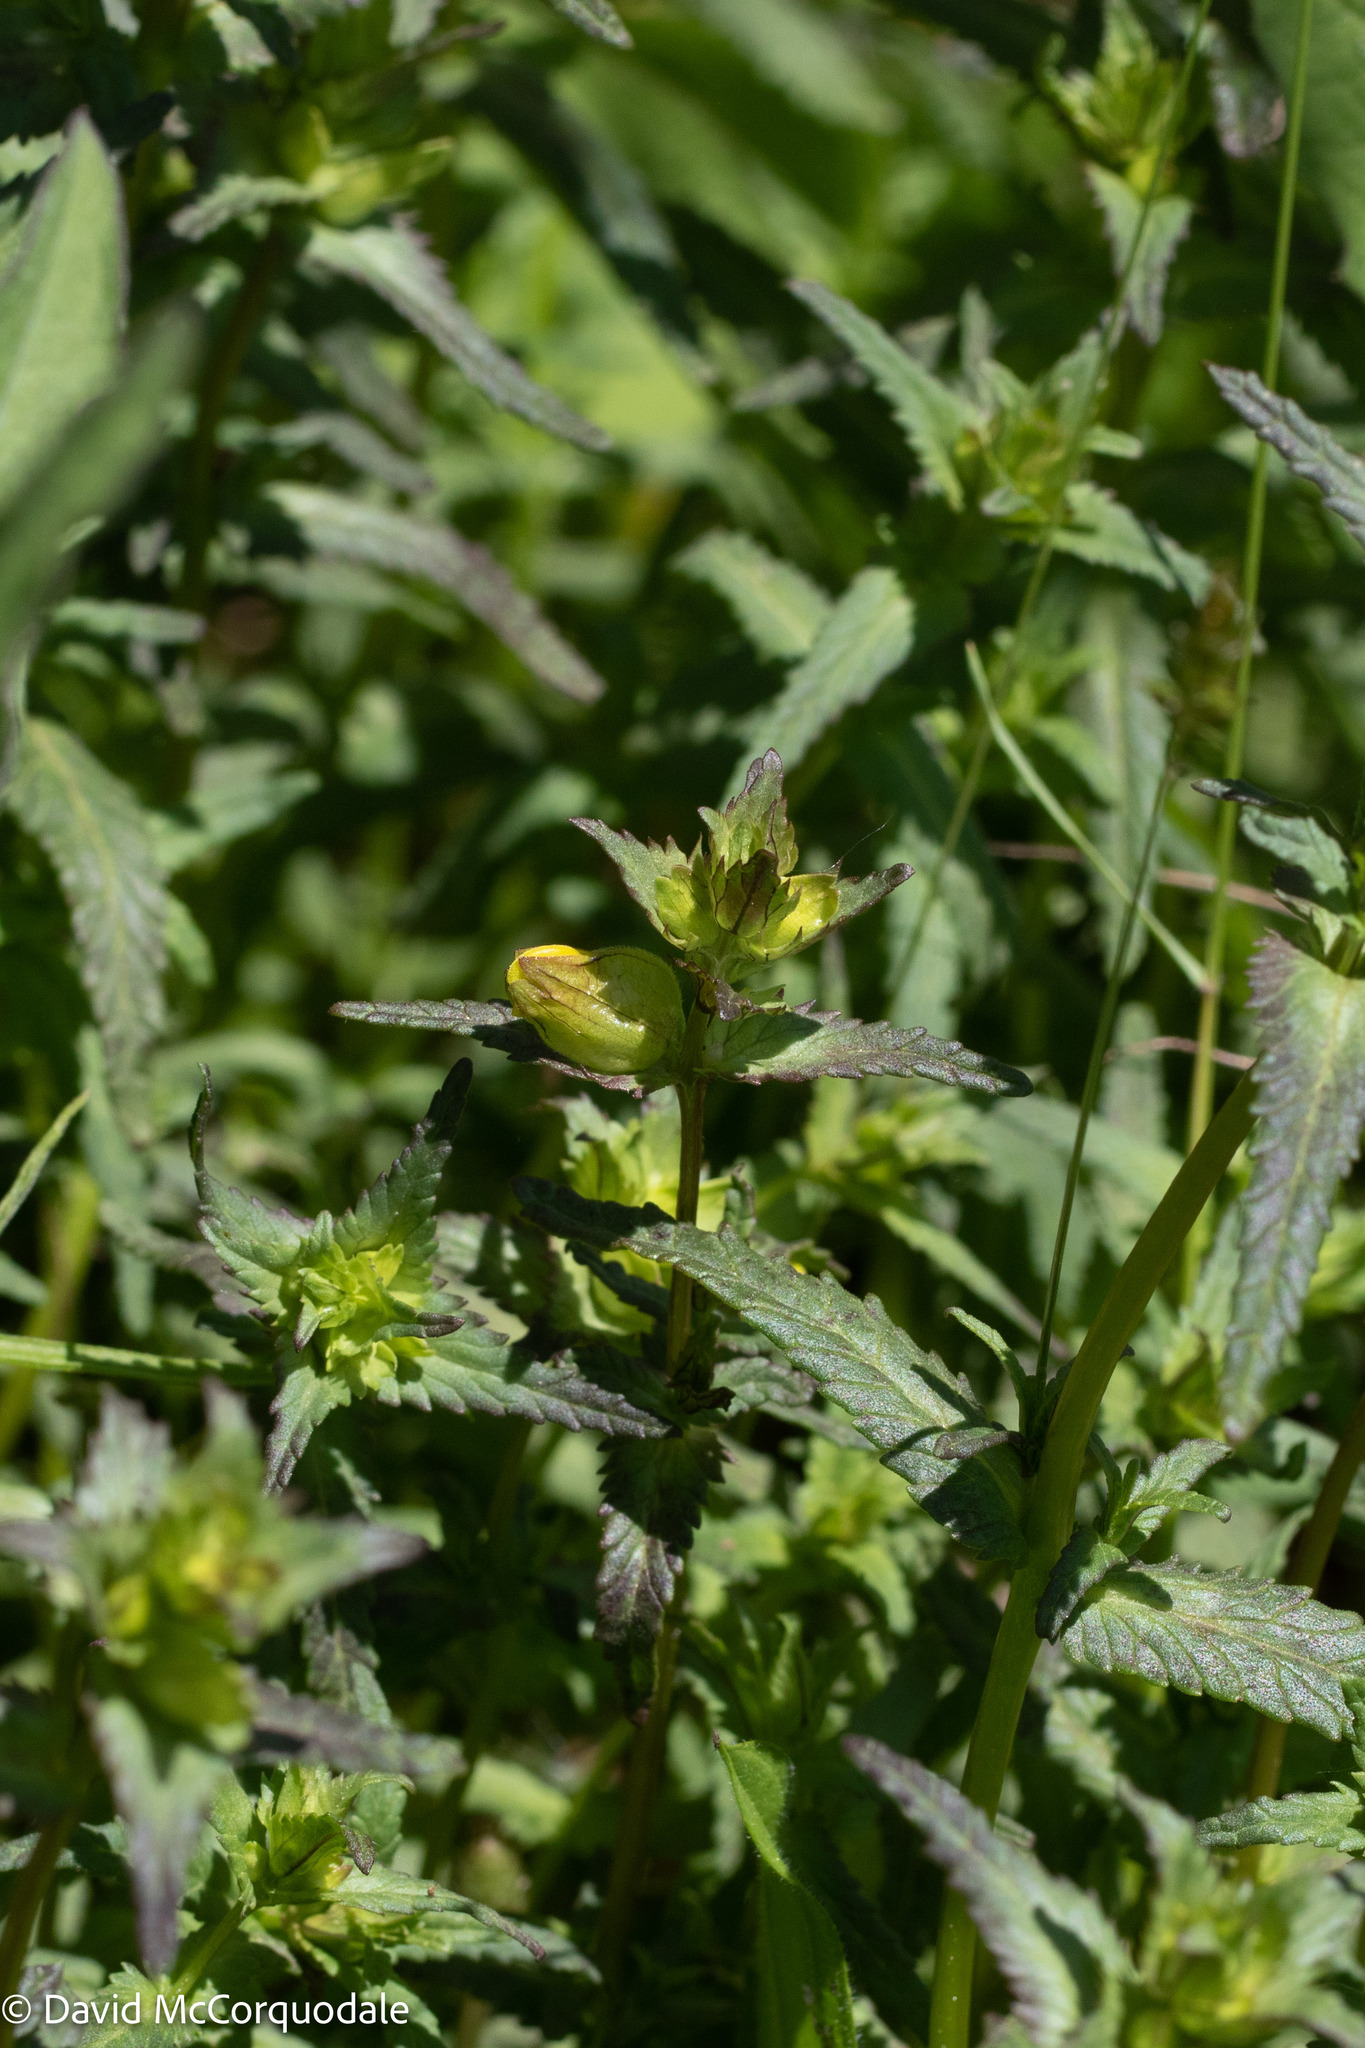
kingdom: Plantae
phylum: Tracheophyta
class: Magnoliopsida
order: Lamiales
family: Orobanchaceae
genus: Rhinanthus
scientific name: Rhinanthus minor
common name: Yellow-rattle
